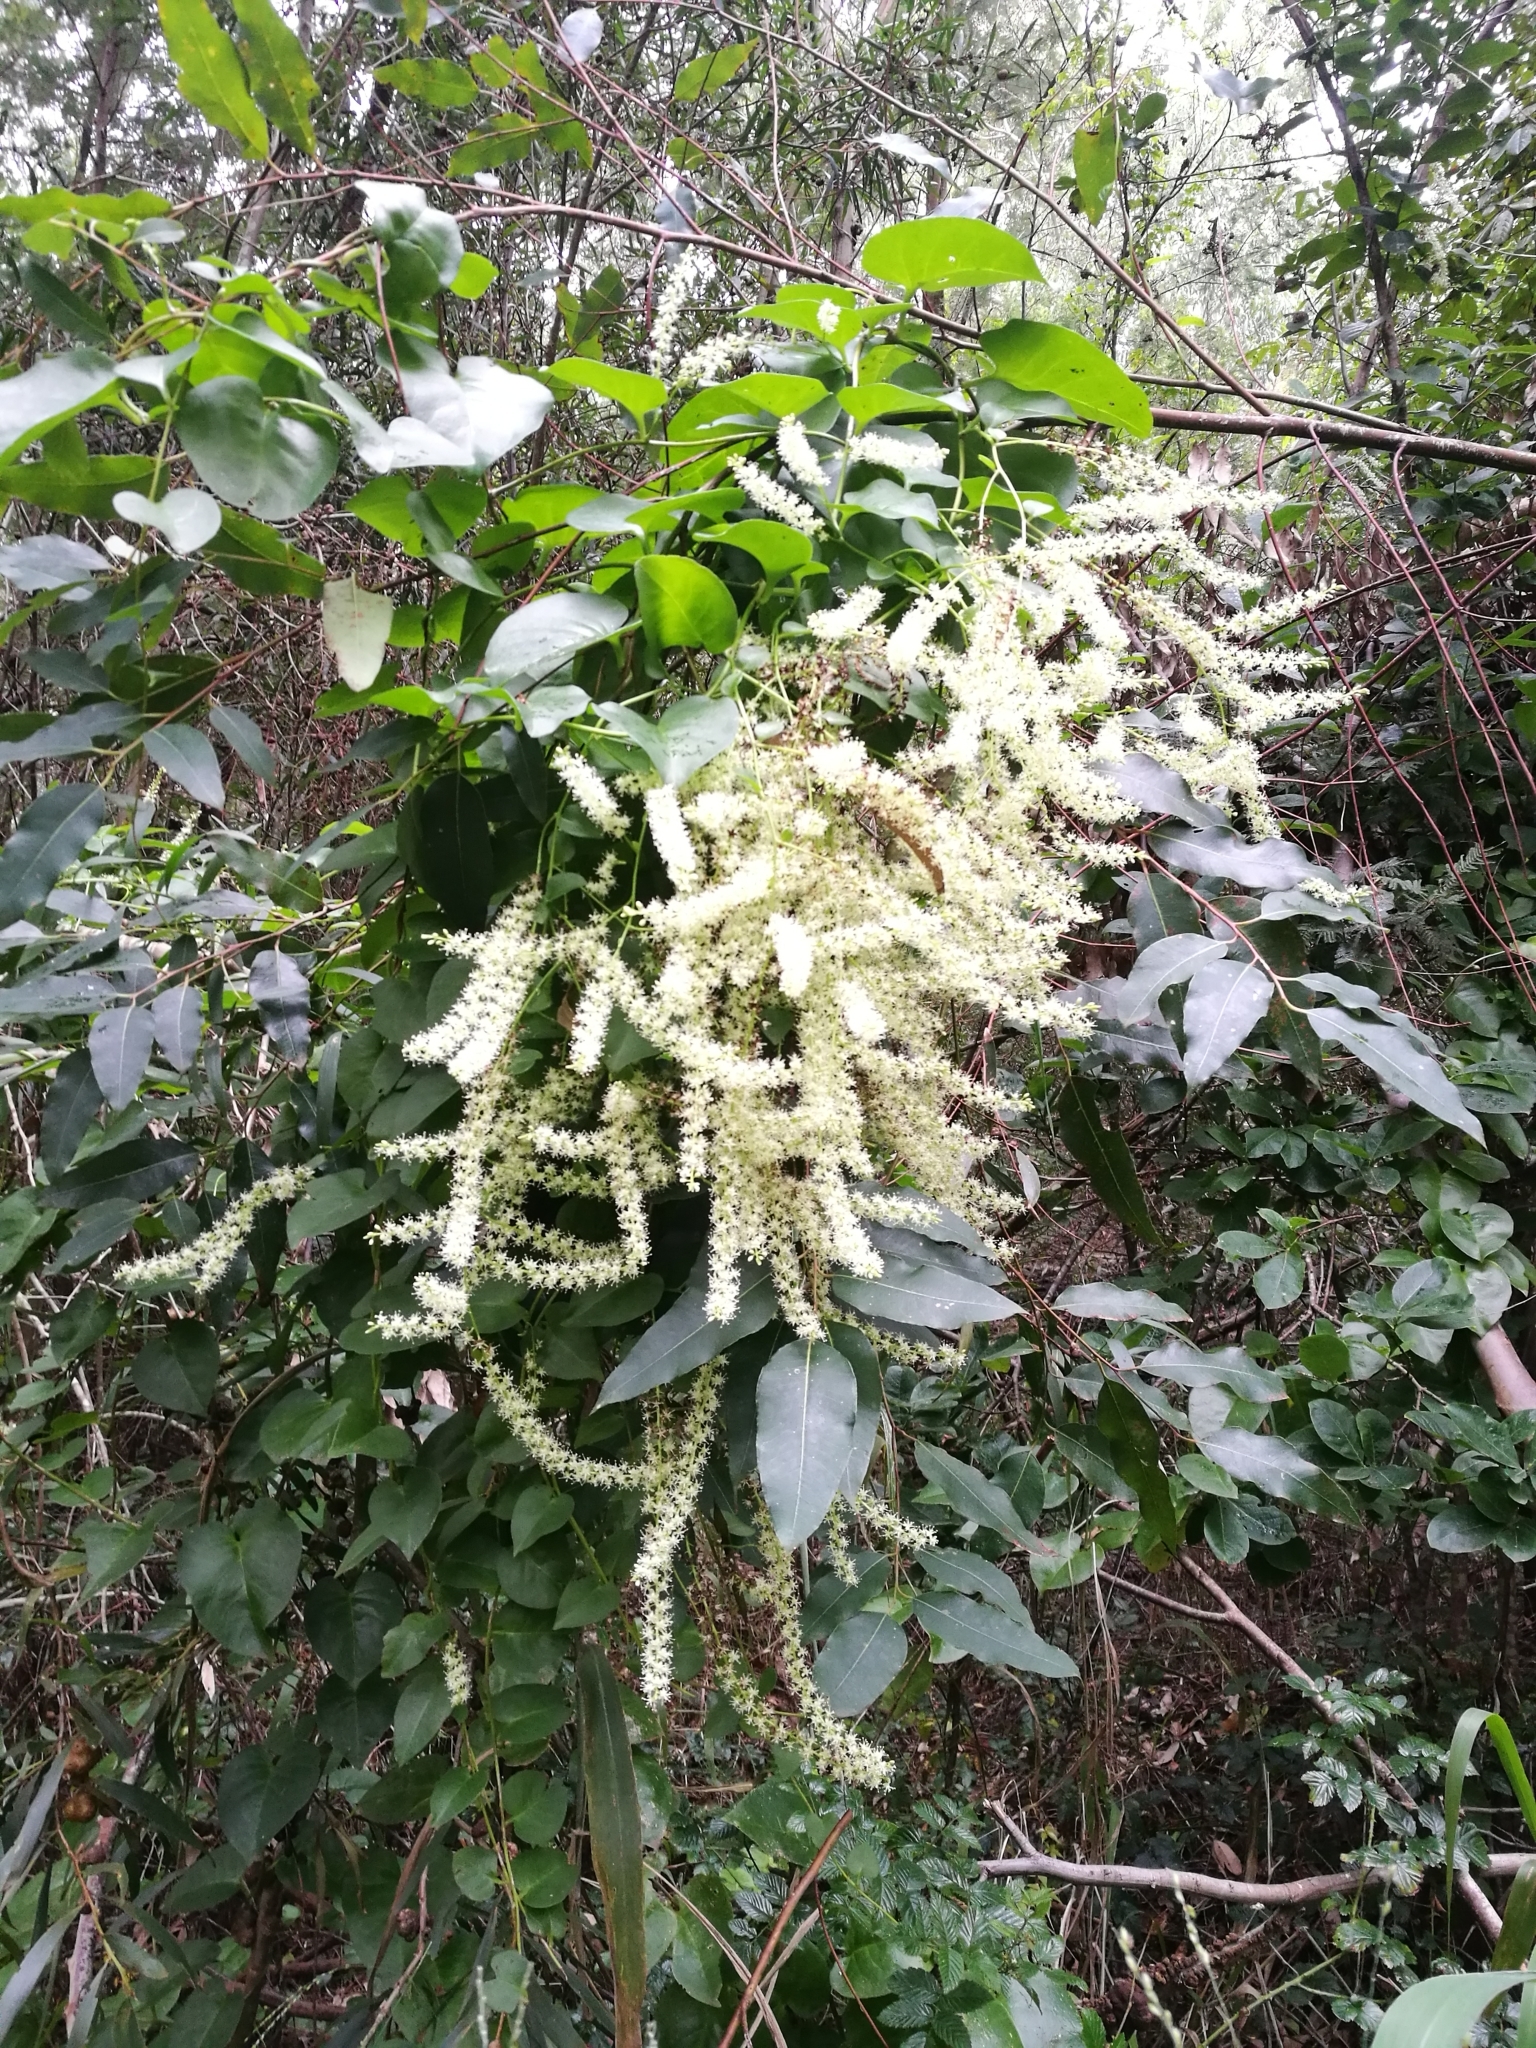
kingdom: Plantae
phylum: Tracheophyta
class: Magnoliopsida
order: Caryophyllales
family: Basellaceae
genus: Anredera
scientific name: Anredera cordifolia
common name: Heartleaf madeiravine
